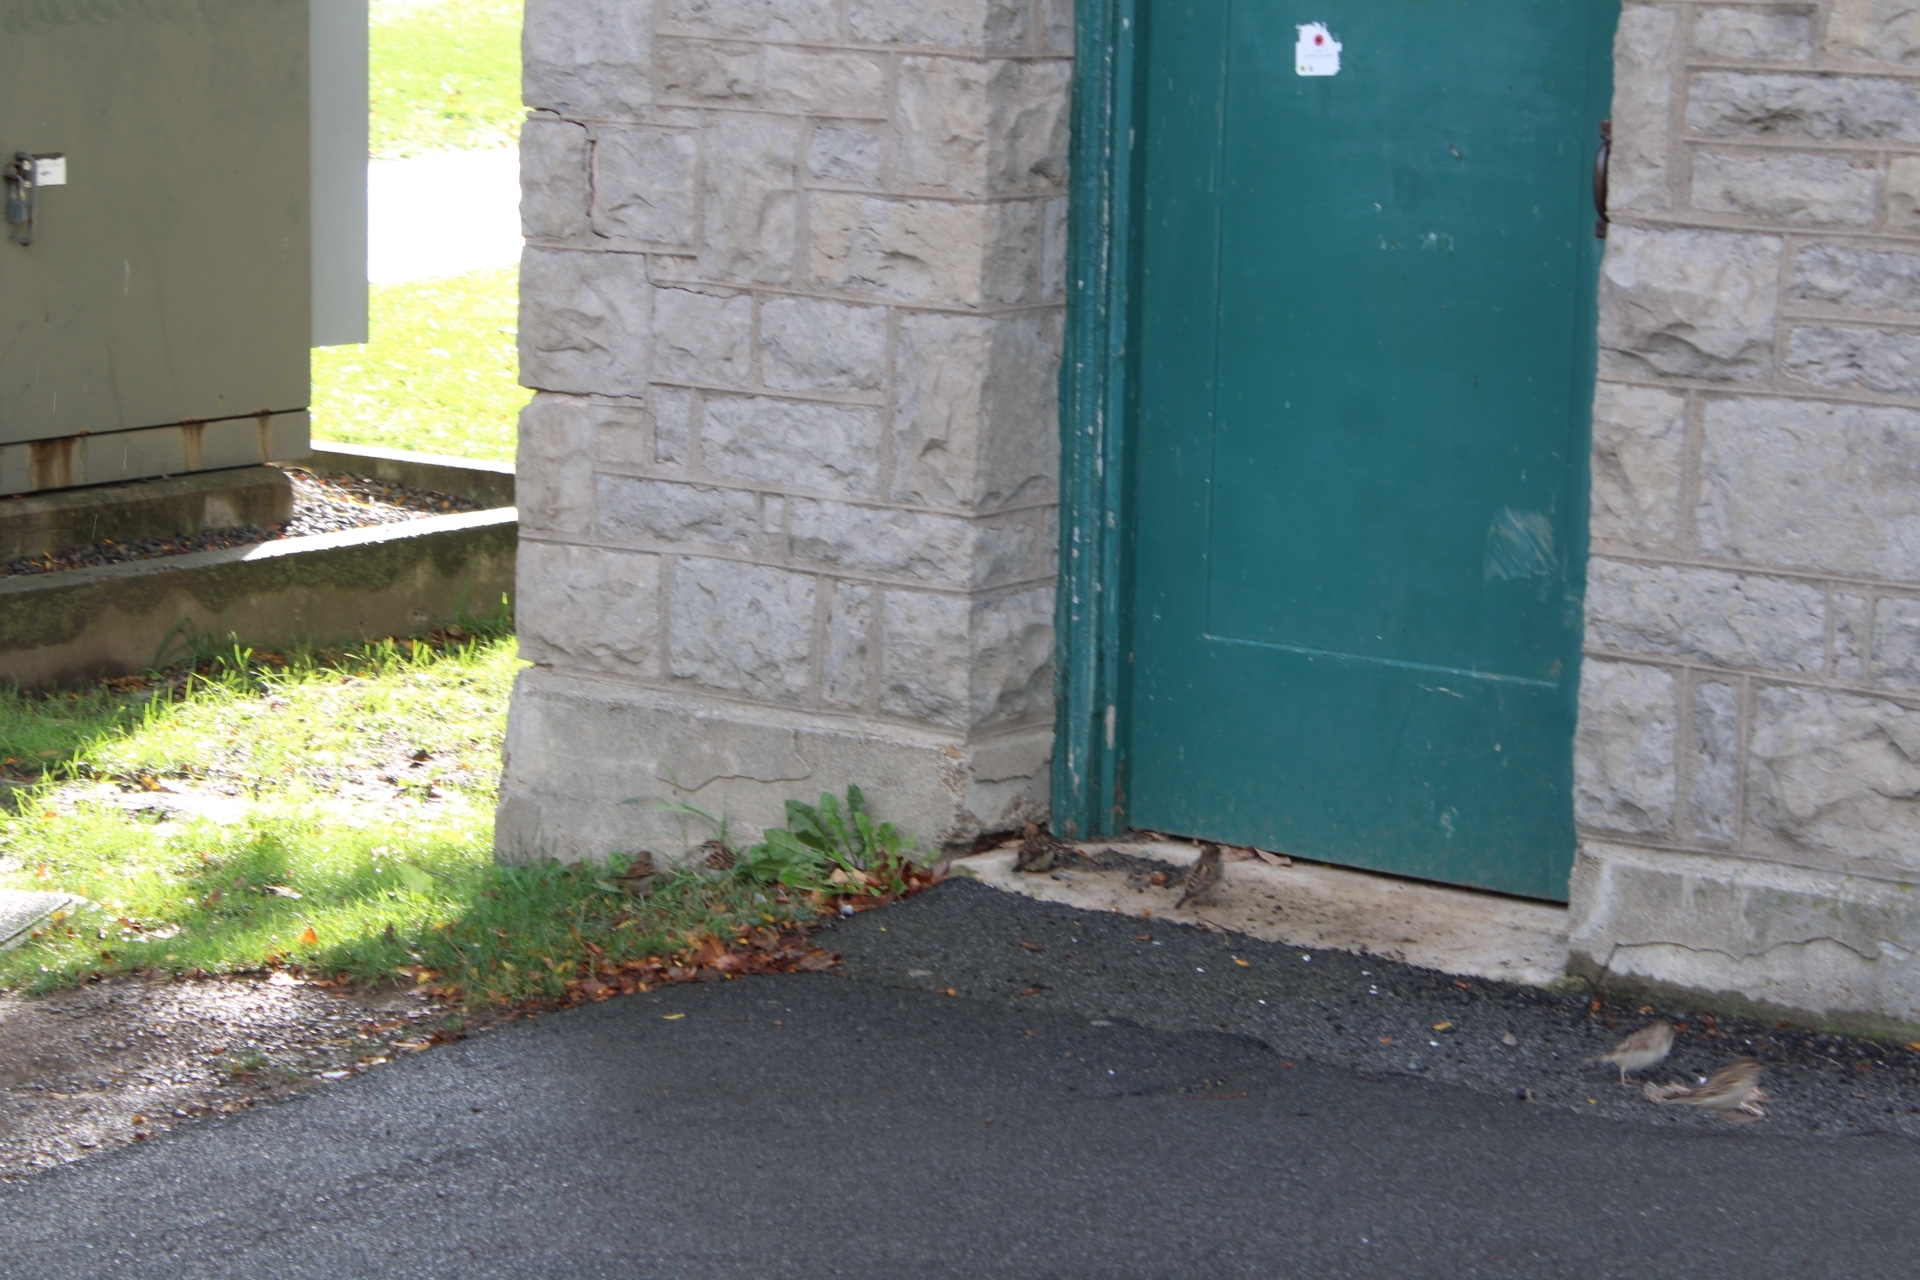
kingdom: Animalia
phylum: Chordata
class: Aves
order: Passeriformes
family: Passeridae
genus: Passer
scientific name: Passer domesticus
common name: House sparrow
